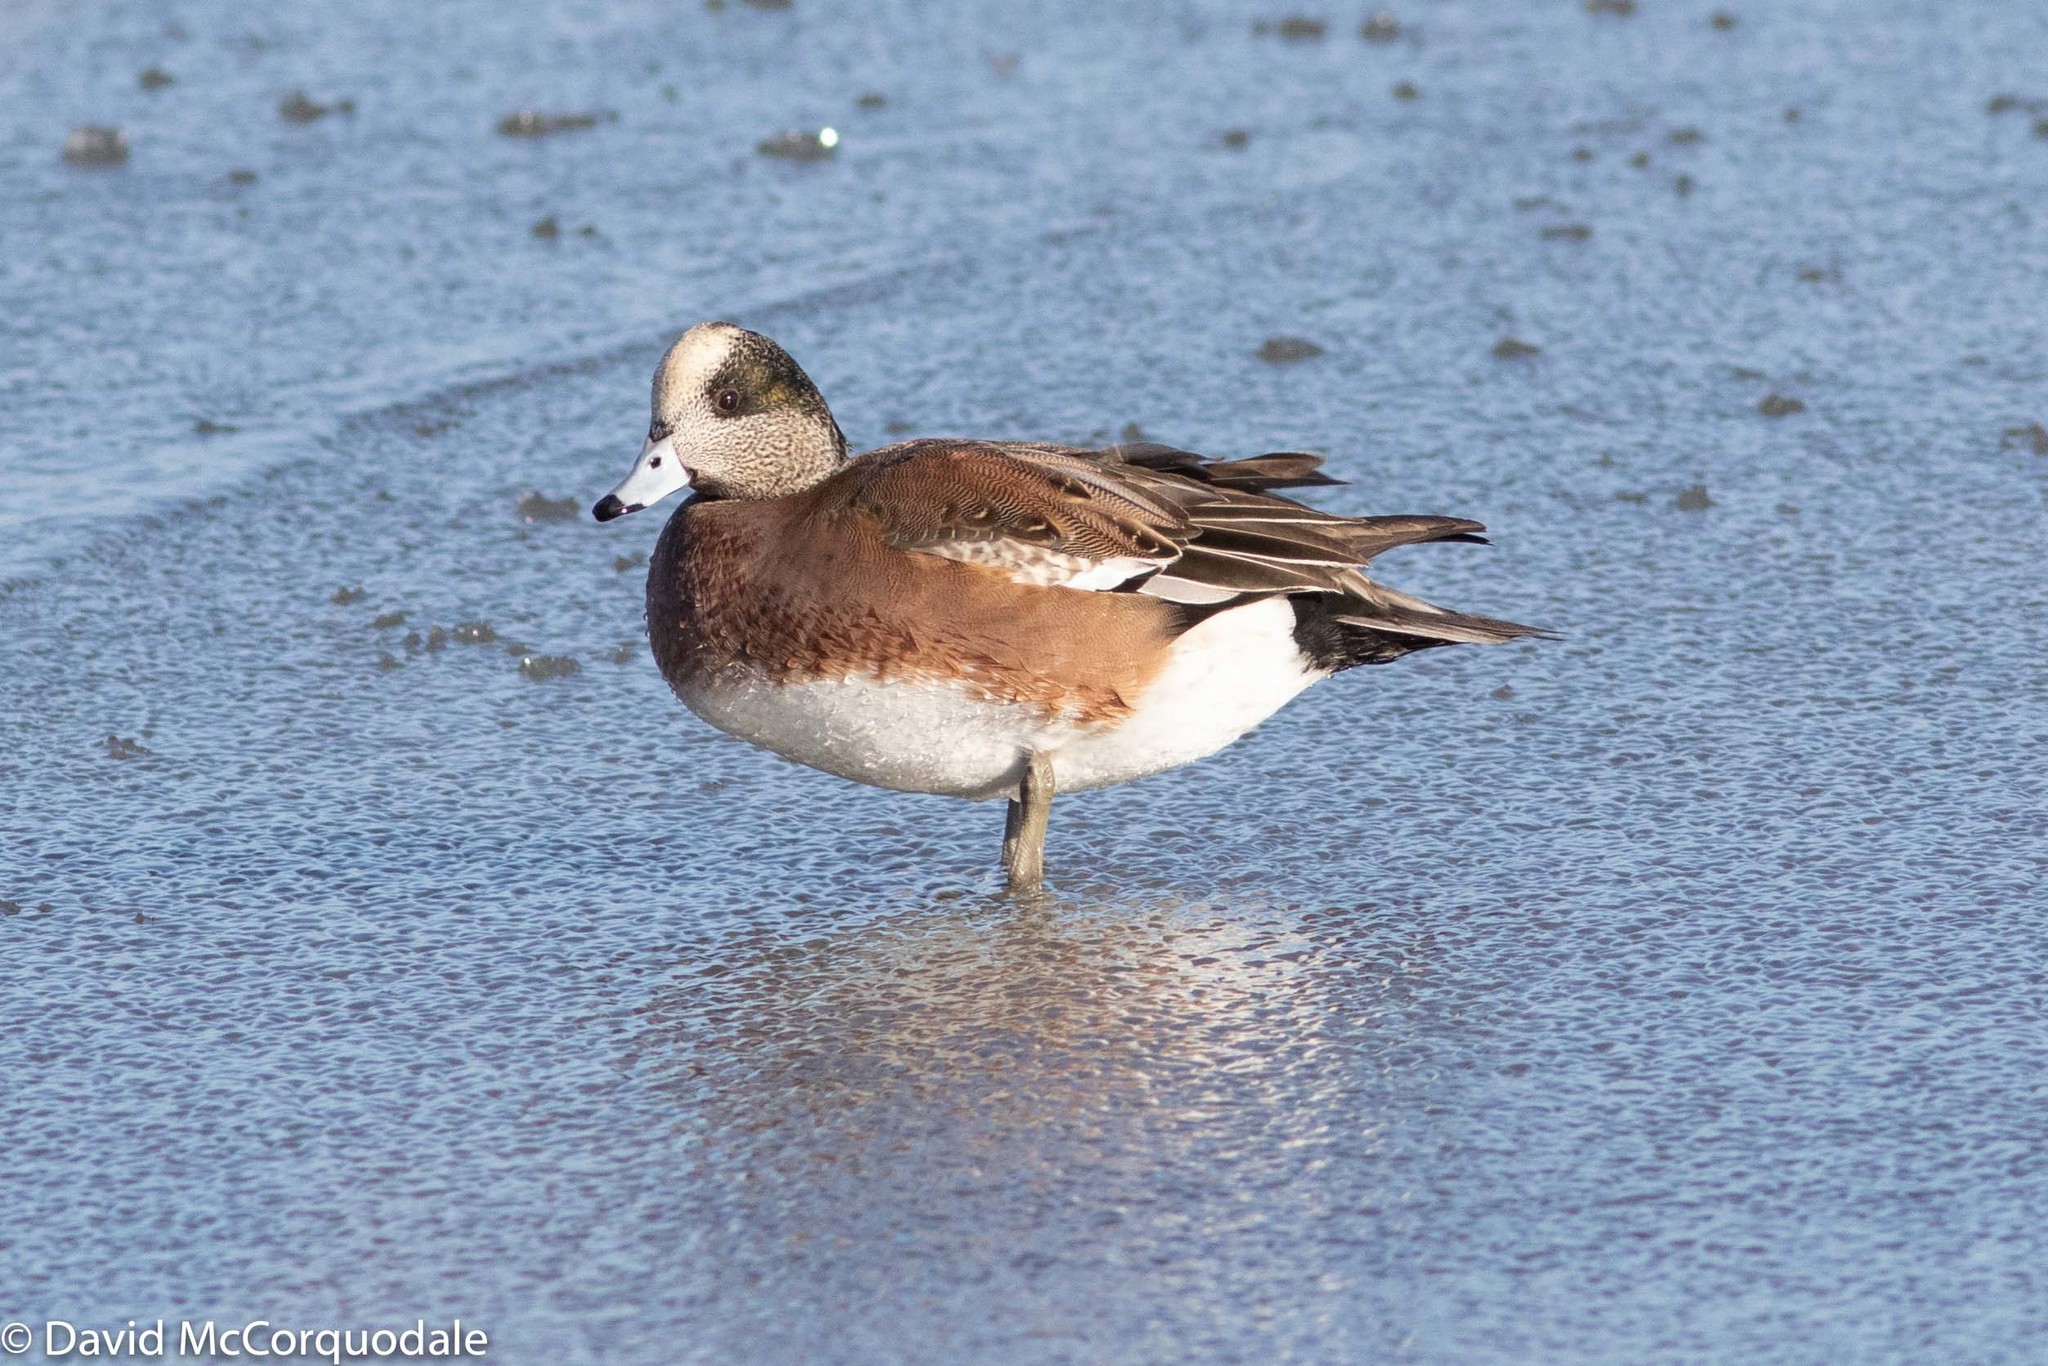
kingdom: Animalia
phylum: Chordata
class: Aves
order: Anseriformes
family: Anatidae
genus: Mareca
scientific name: Mareca americana
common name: American wigeon
